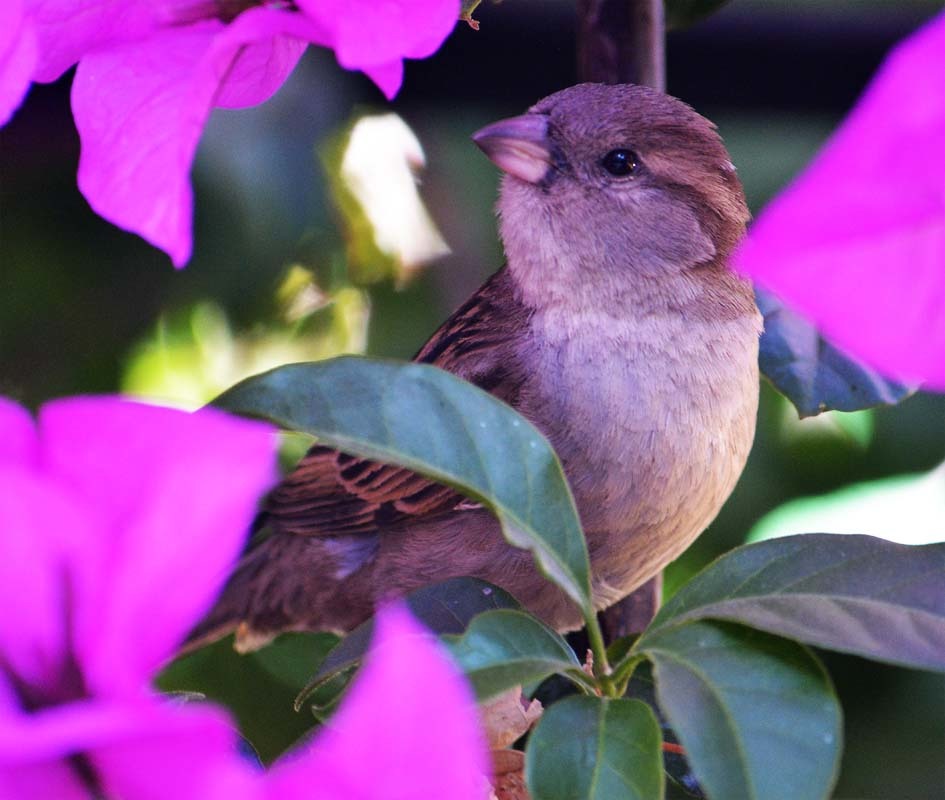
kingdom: Animalia
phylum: Chordata
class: Aves
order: Passeriformes
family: Passeridae
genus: Passer
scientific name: Passer domesticus
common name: House sparrow
